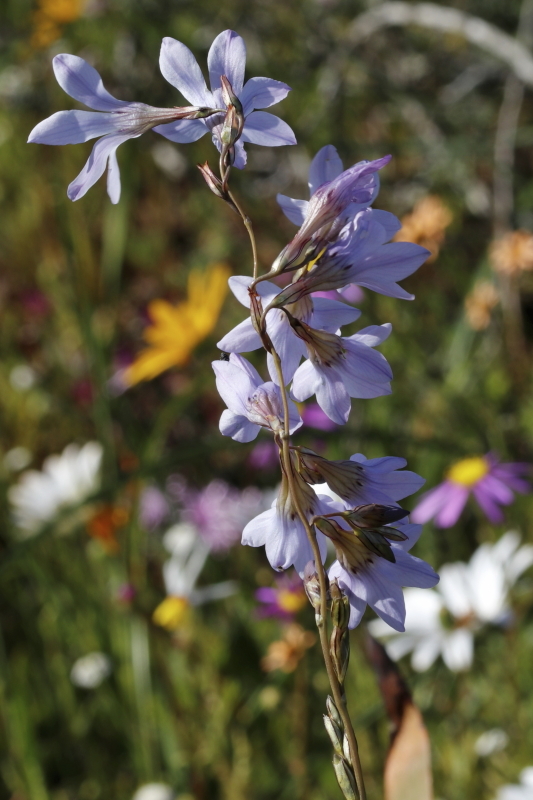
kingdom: Plantae
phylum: Tracheophyta
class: Liliopsida
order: Asparagales
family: Iridaceae
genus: Ixia
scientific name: Ixia rapunculoides
